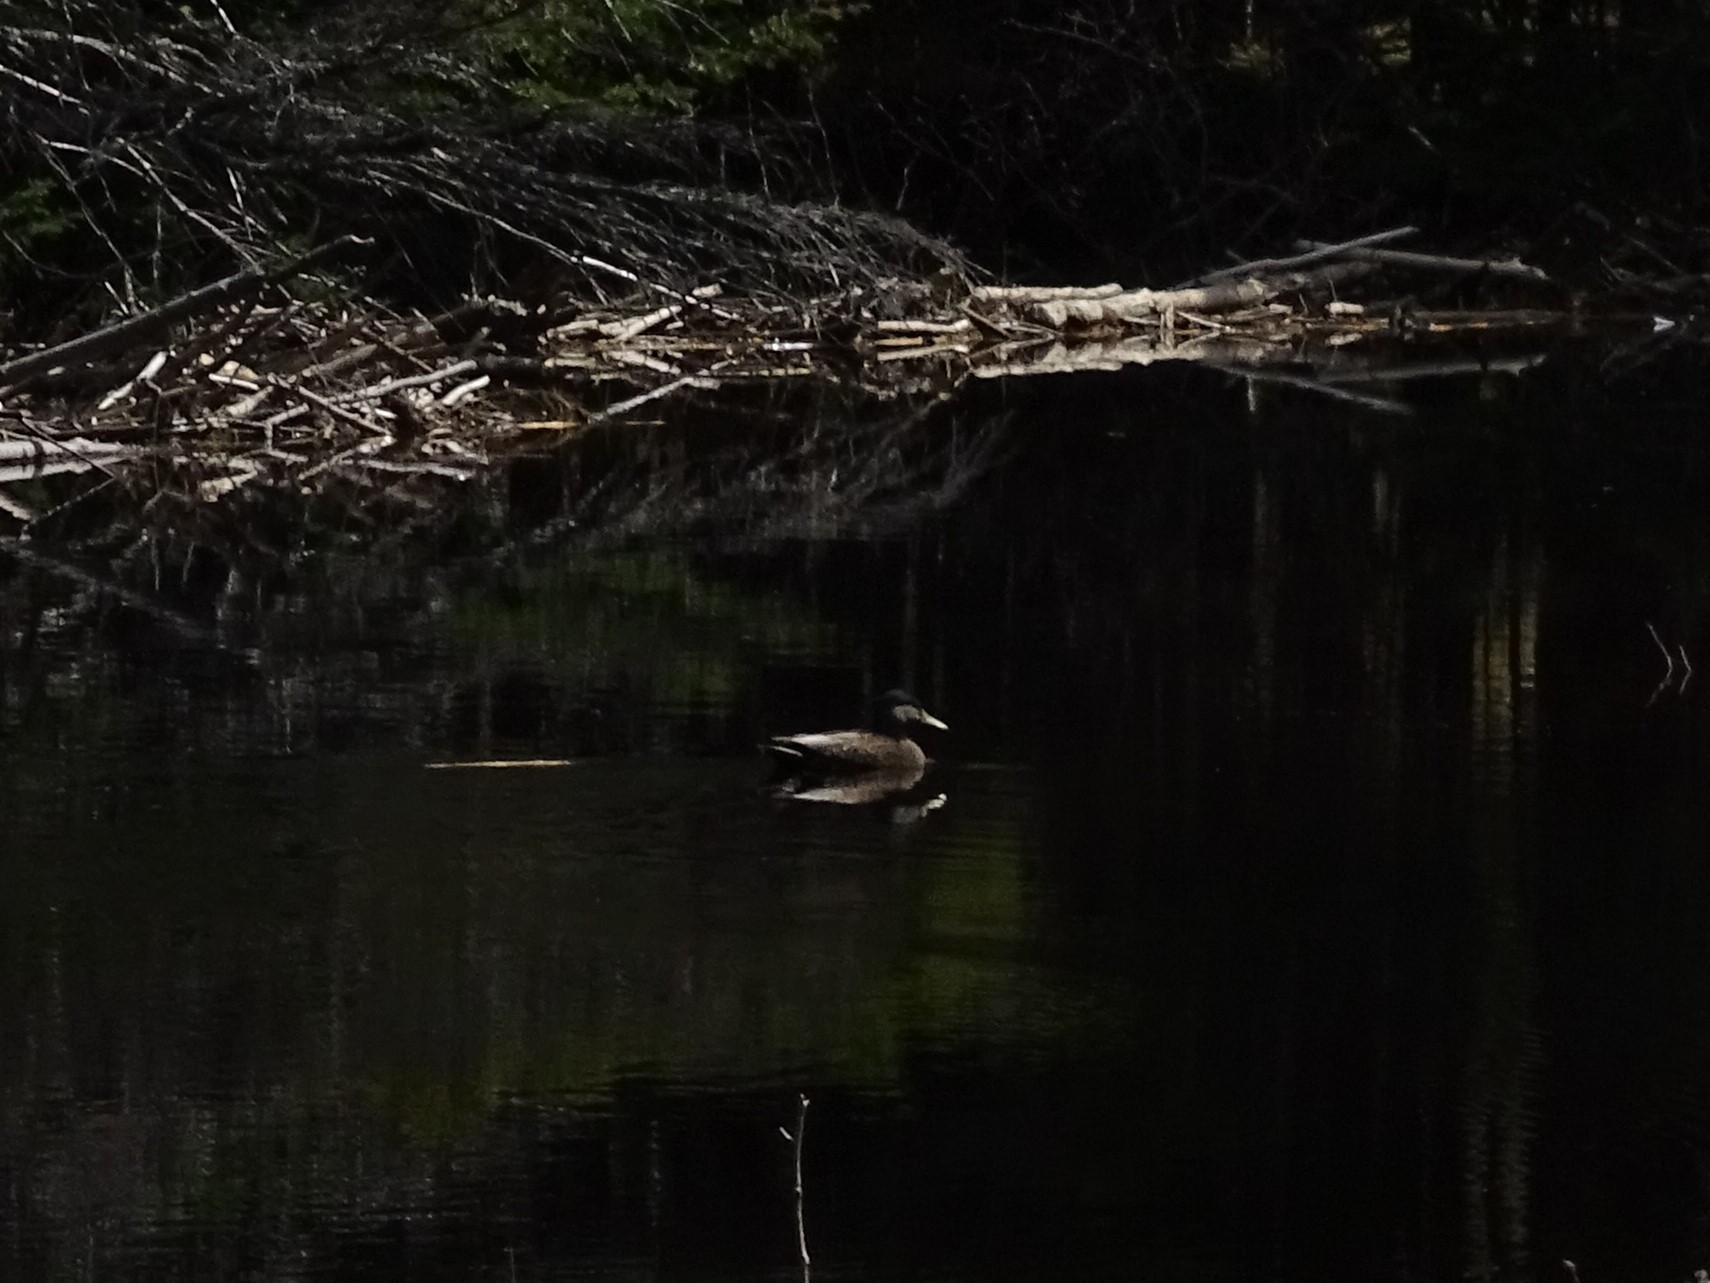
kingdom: Animalia
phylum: Chordata
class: Aves
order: Anseriformes
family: Anatidae
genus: Anas
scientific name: Anas
